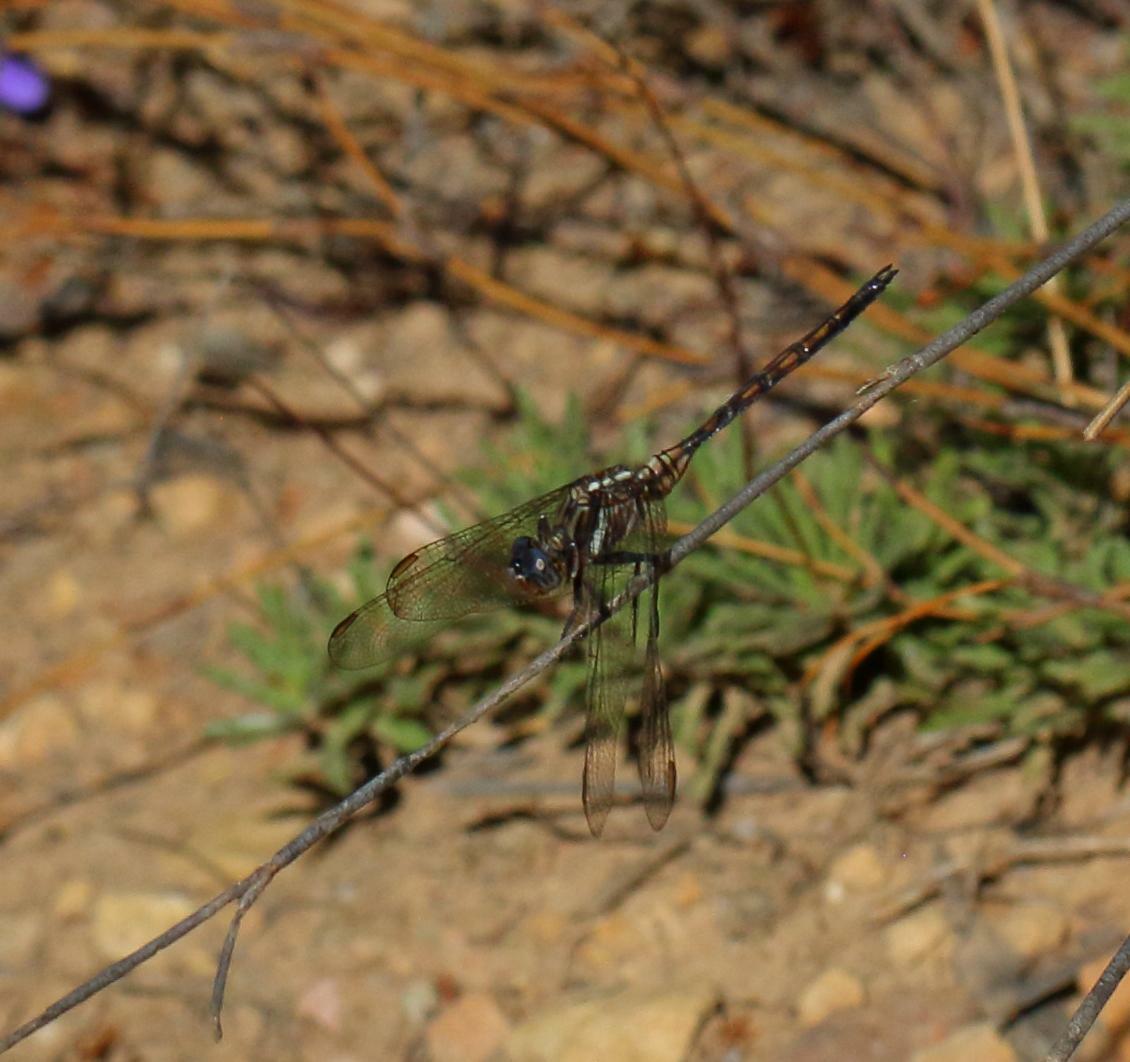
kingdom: Animalia
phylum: Arthropoda
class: Insecta
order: Odonata
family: Libellulidae
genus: Orthetrum
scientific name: Orthetrum julia
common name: Julia skimmer
